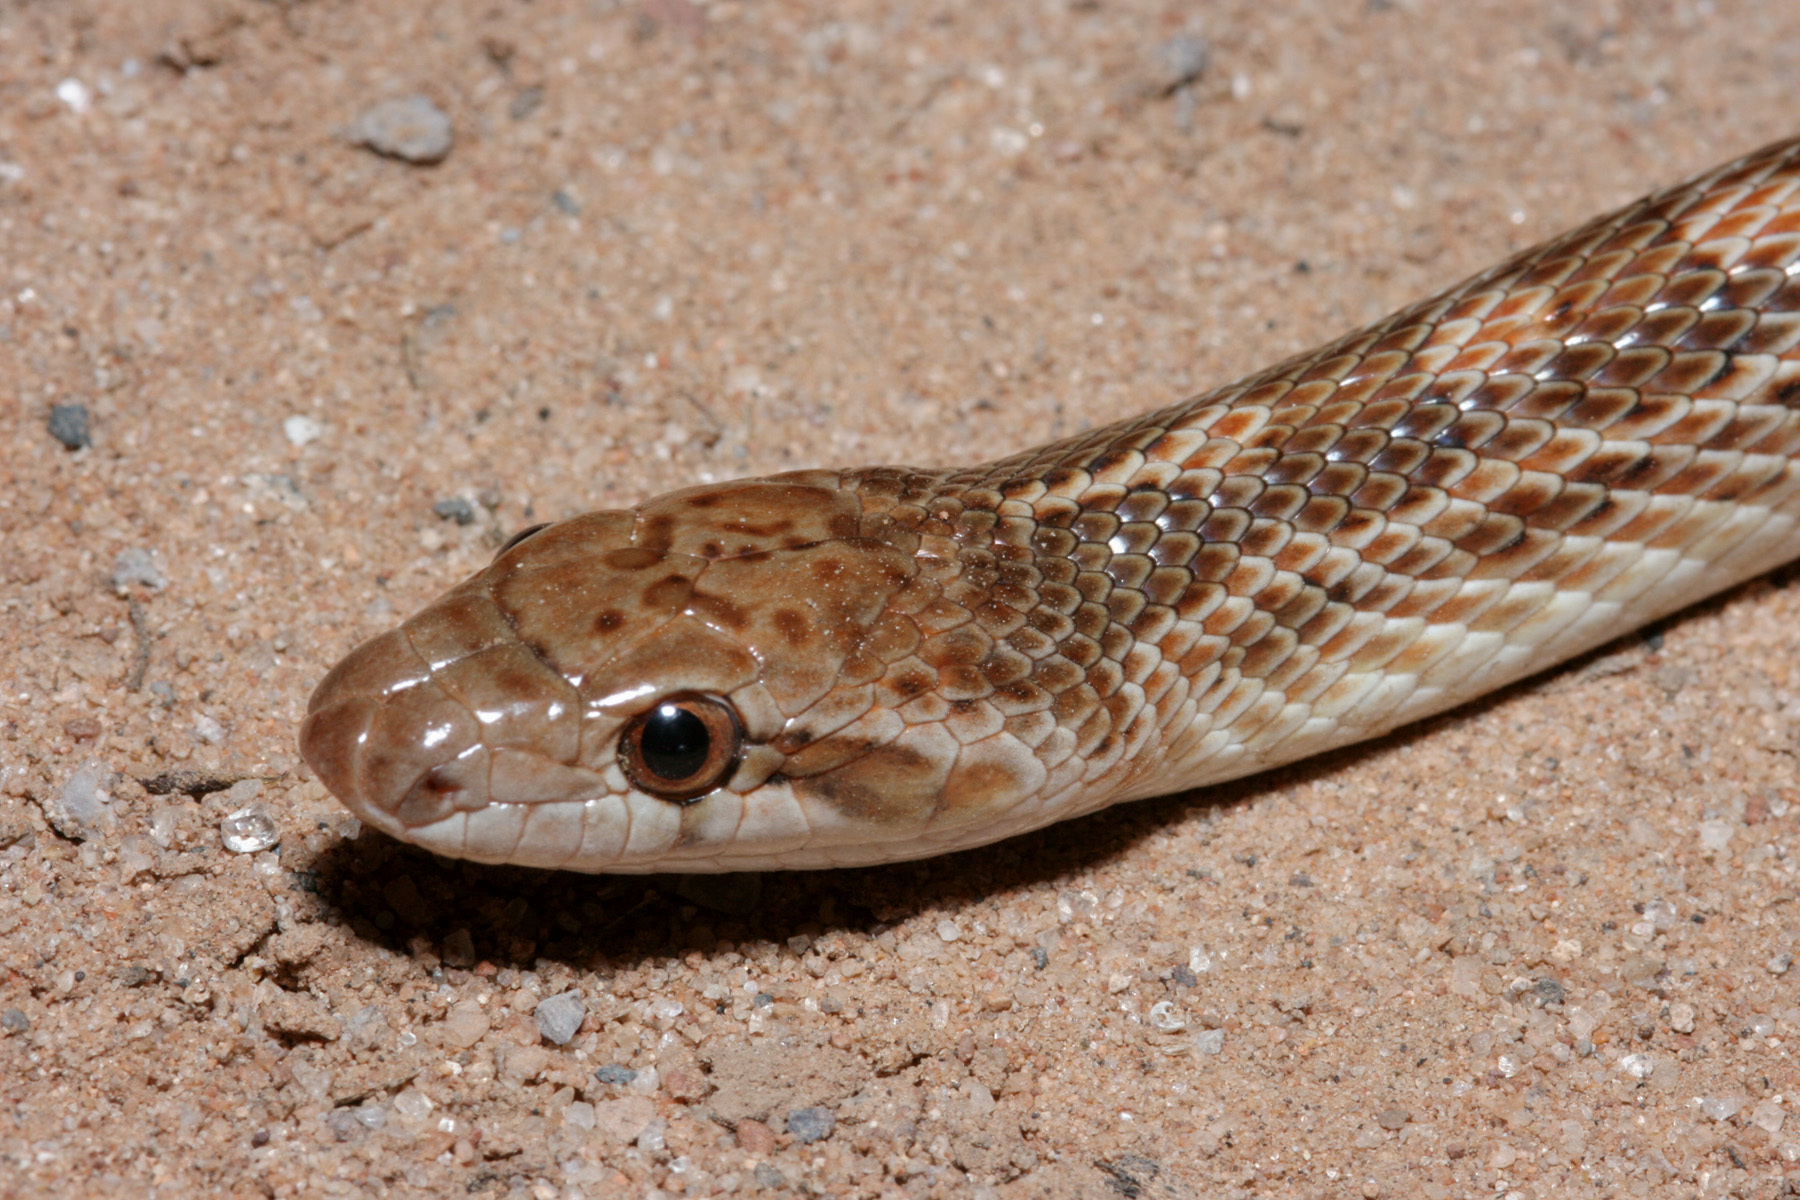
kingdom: Animalia
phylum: Chordata
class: Squamata
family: Colubridae
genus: Arizona
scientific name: Arizona elegans
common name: Glossy snake
